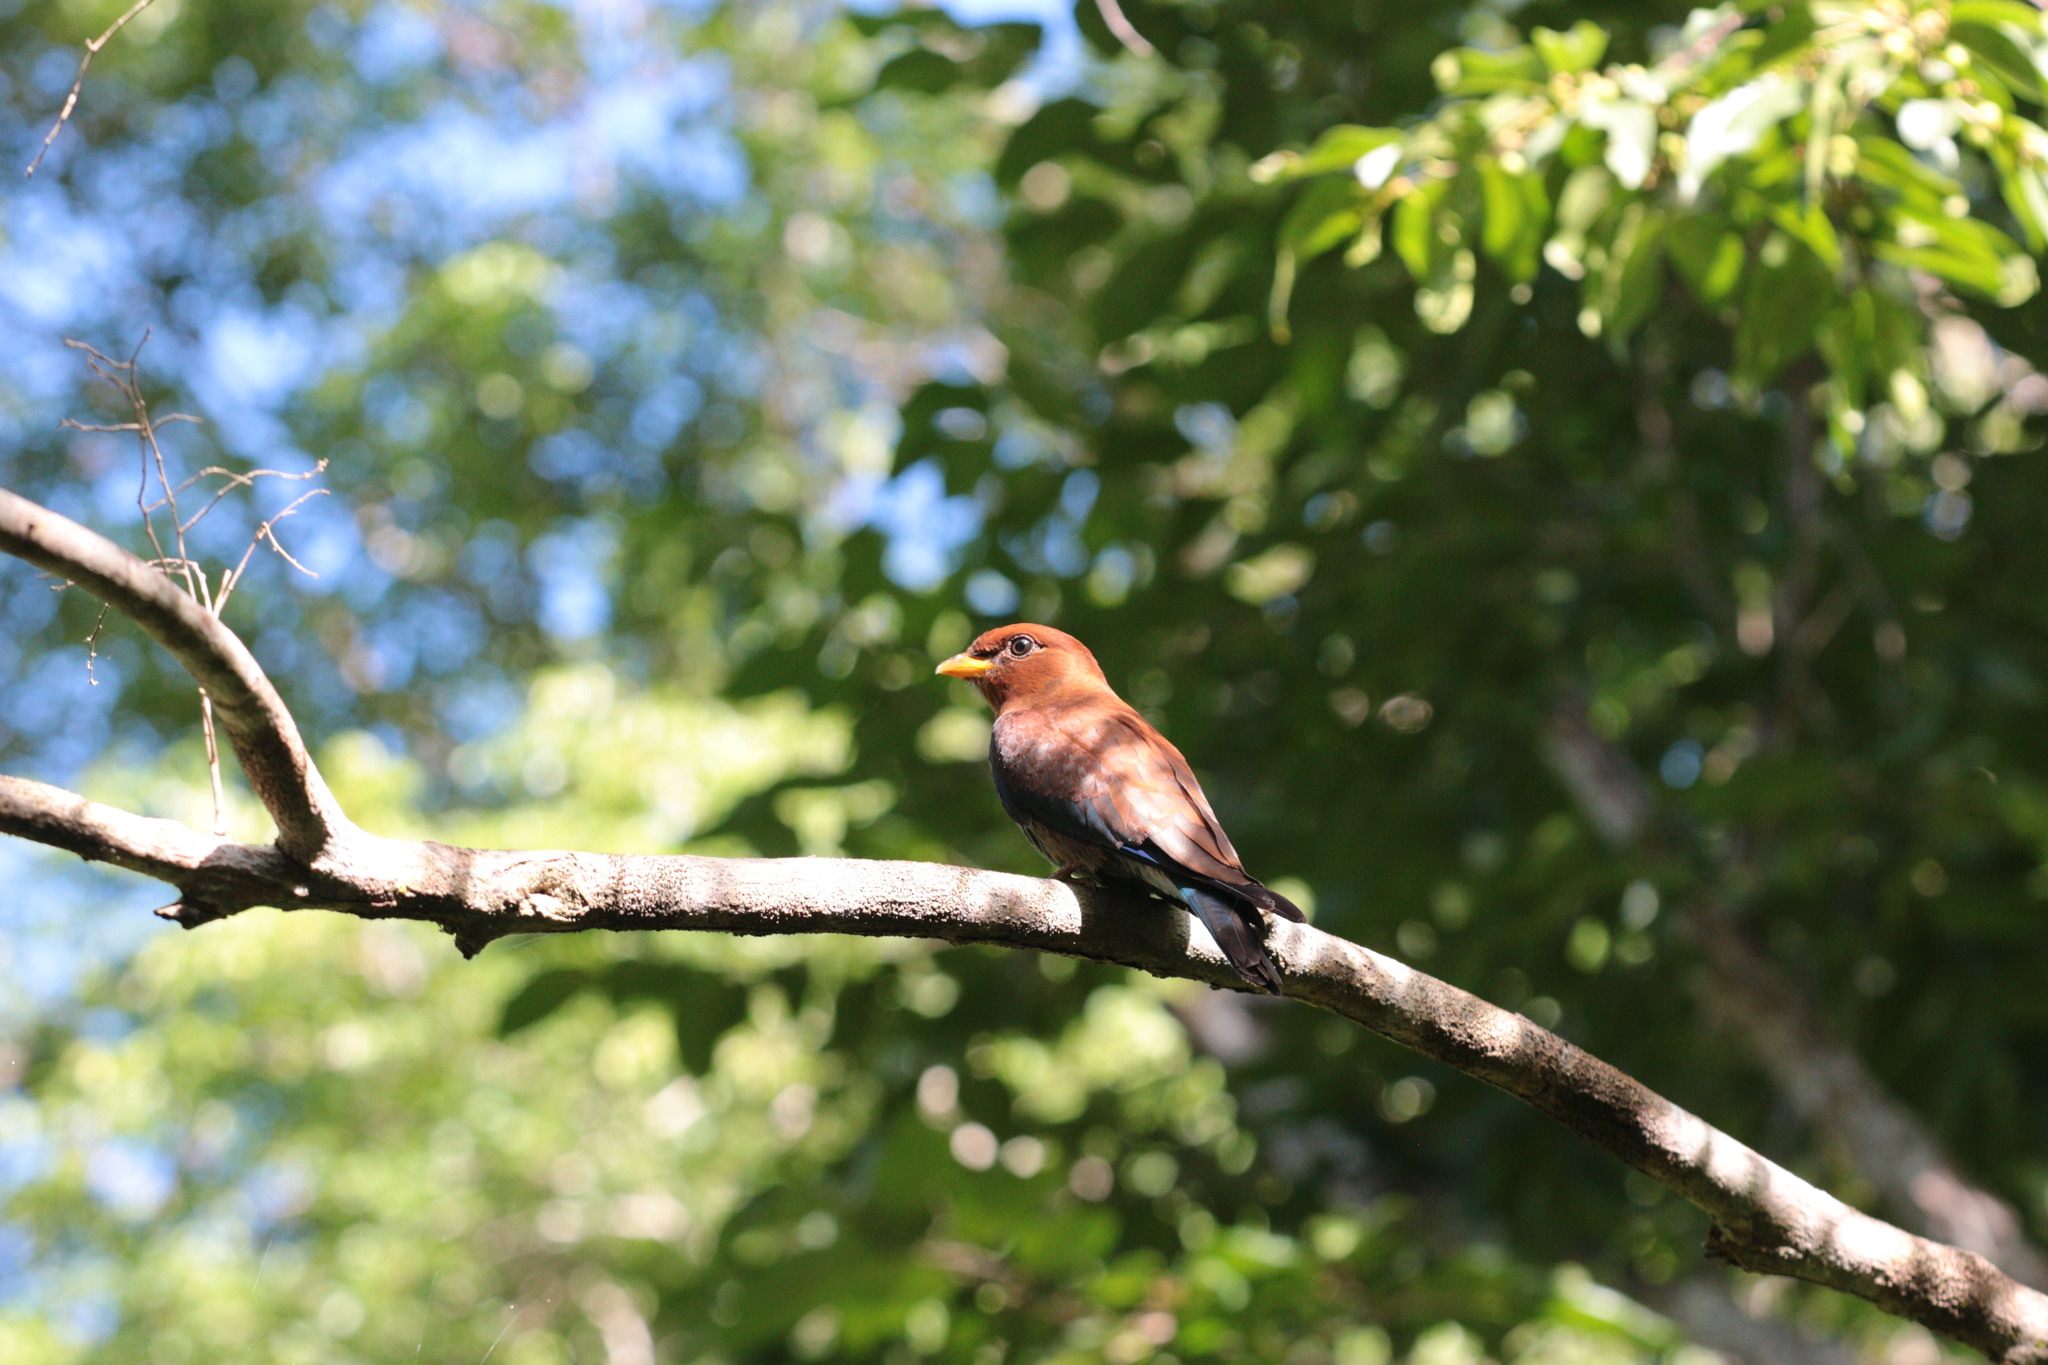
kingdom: Animalia
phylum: Chordata
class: Aves
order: Coraciiformes
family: Coraciidae
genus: Eurystomus
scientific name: Eurystomus glaucurus
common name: Broad-billed roller
